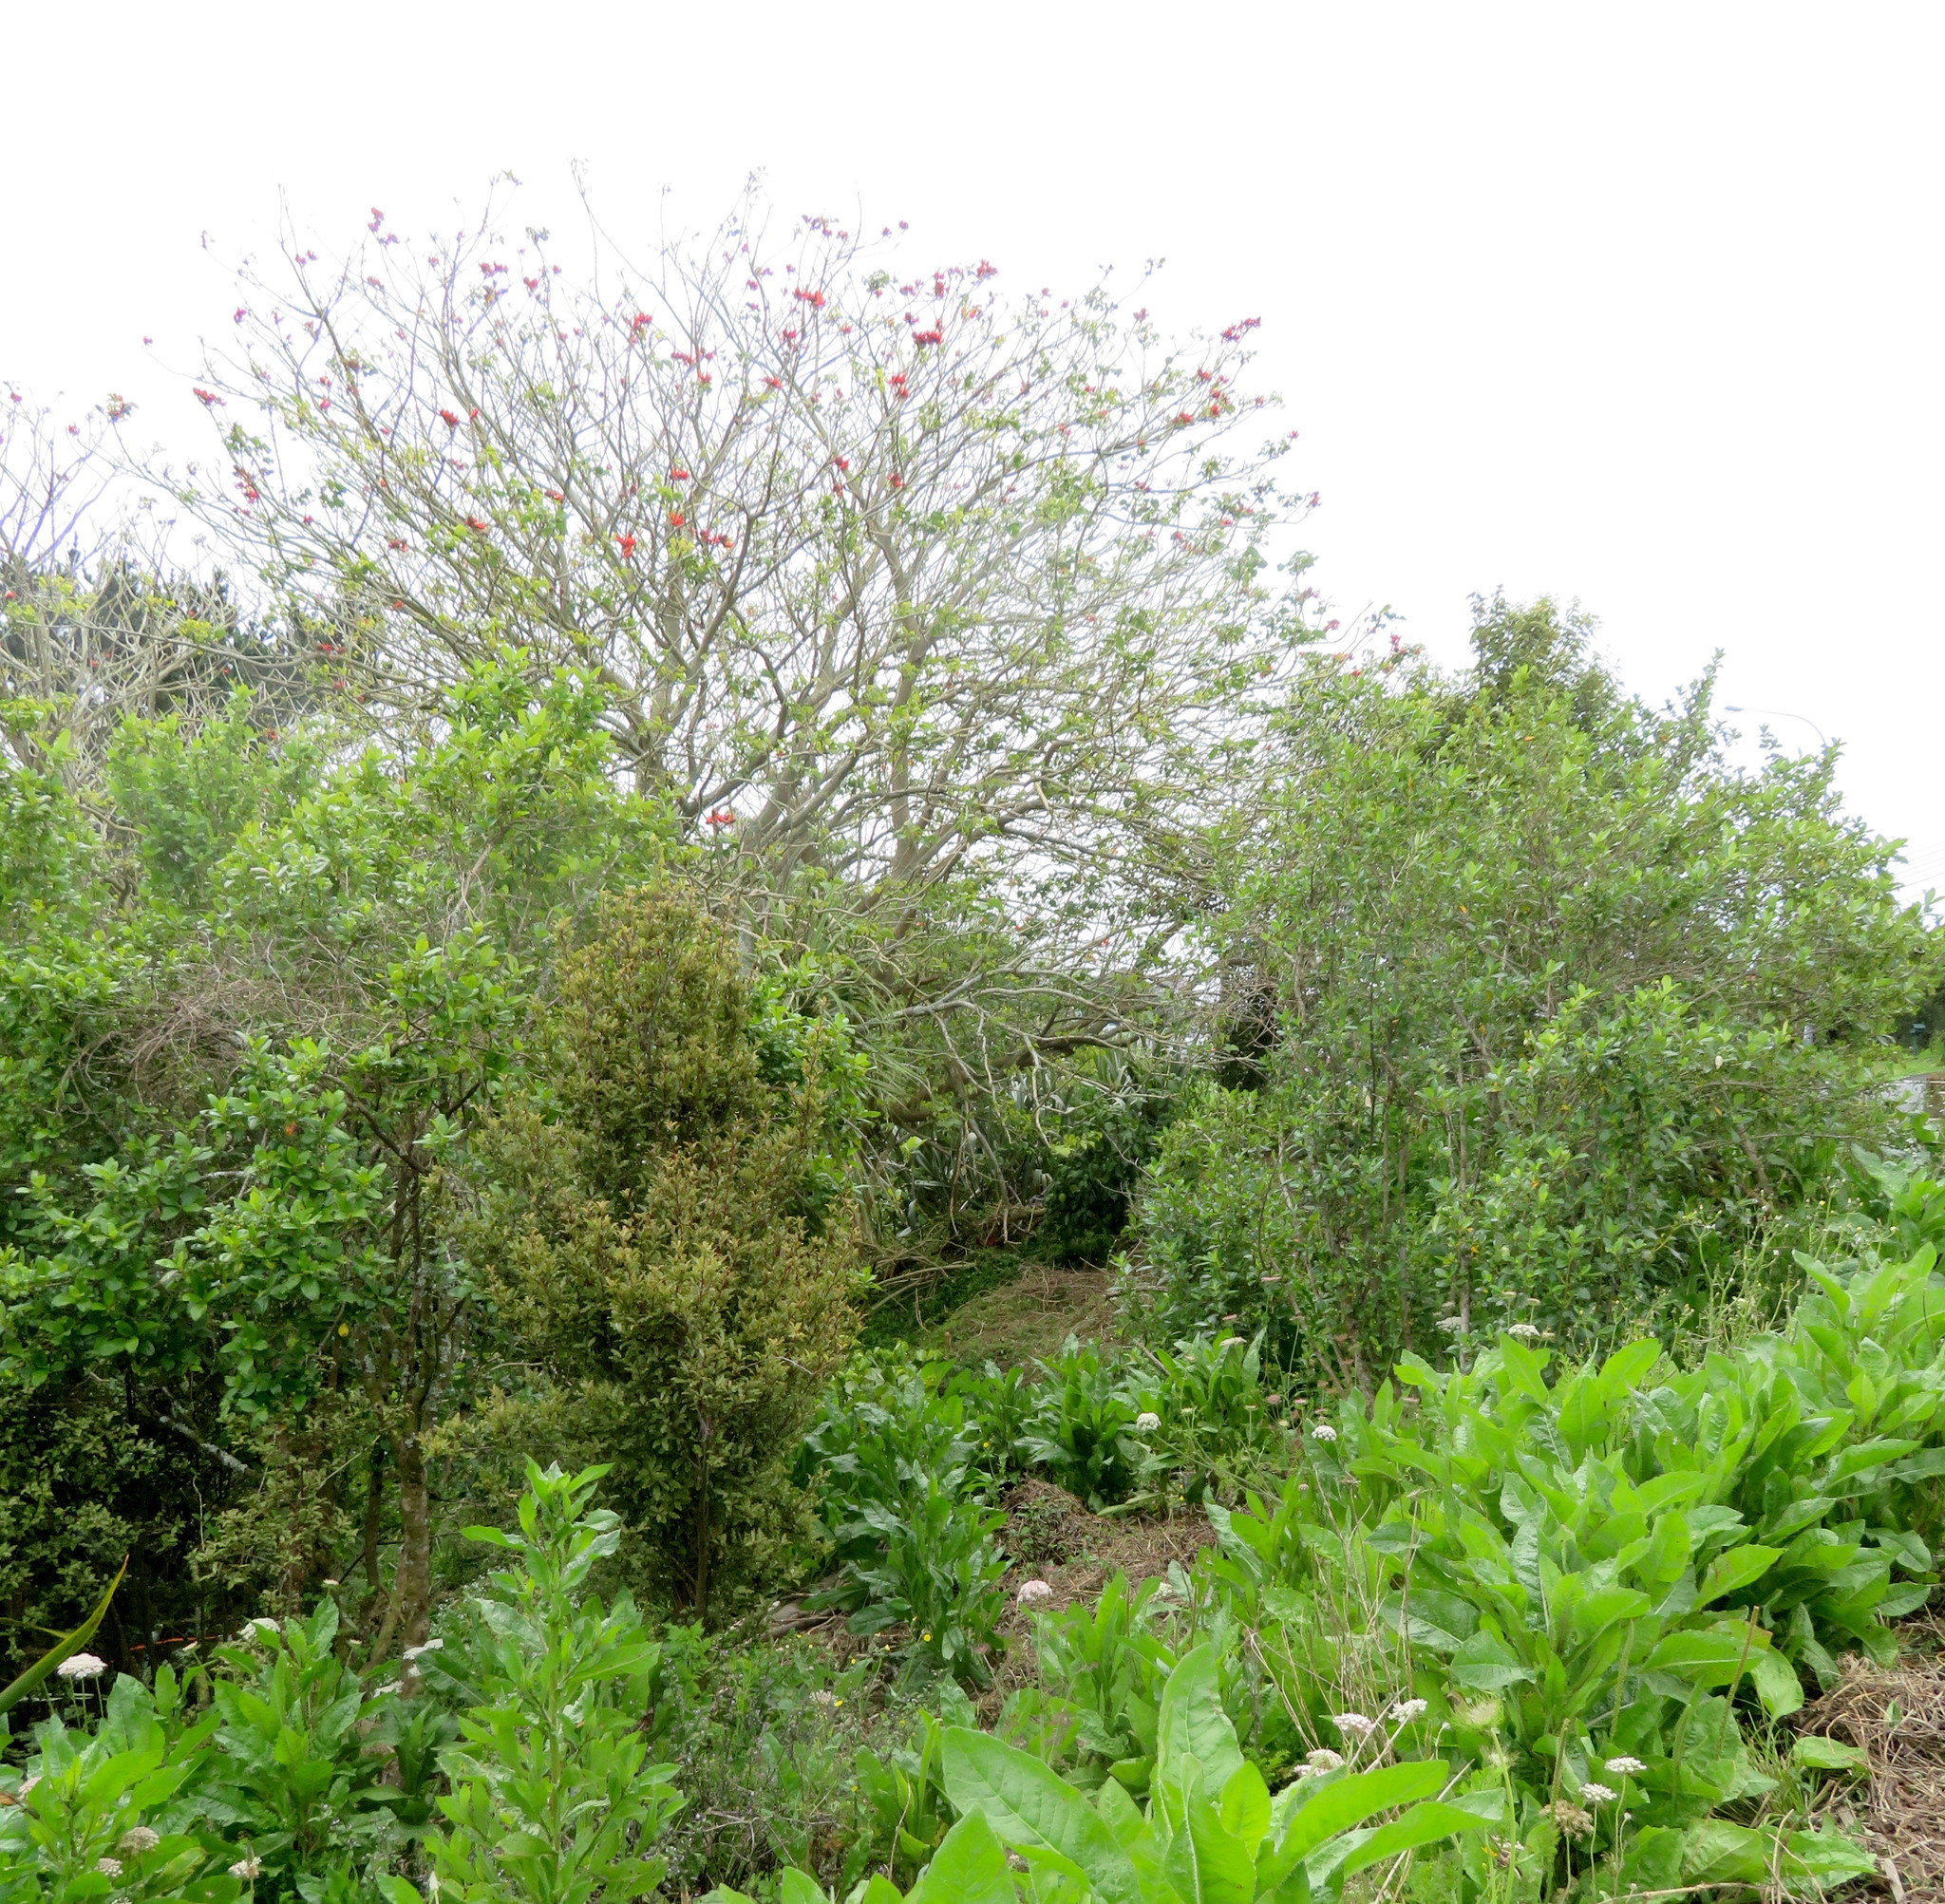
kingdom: Plantae
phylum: Tracheophyta
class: Magnoliopsida
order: Fabales
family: Fabaceae
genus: Erythrina
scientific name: Erythrina sykesii
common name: Coraltree
